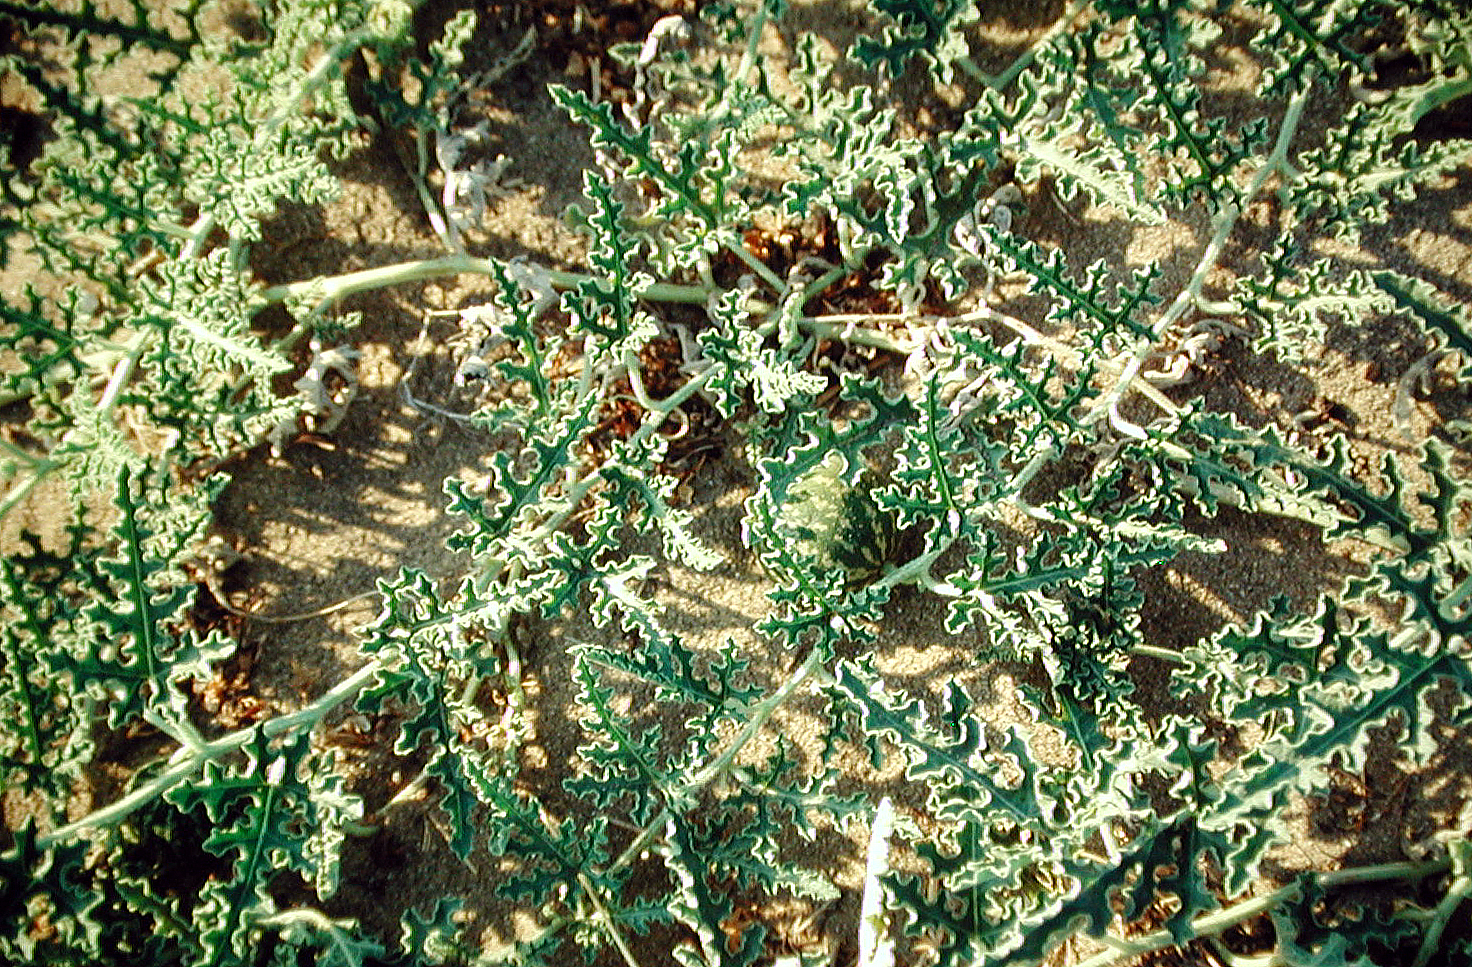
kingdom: Plantae
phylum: Tracheophyta
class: Magnoliopsida
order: Cucurbitales
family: Cucurbitaceae
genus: Citrullus
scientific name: Citrullus colocynthis
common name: Colocynth
